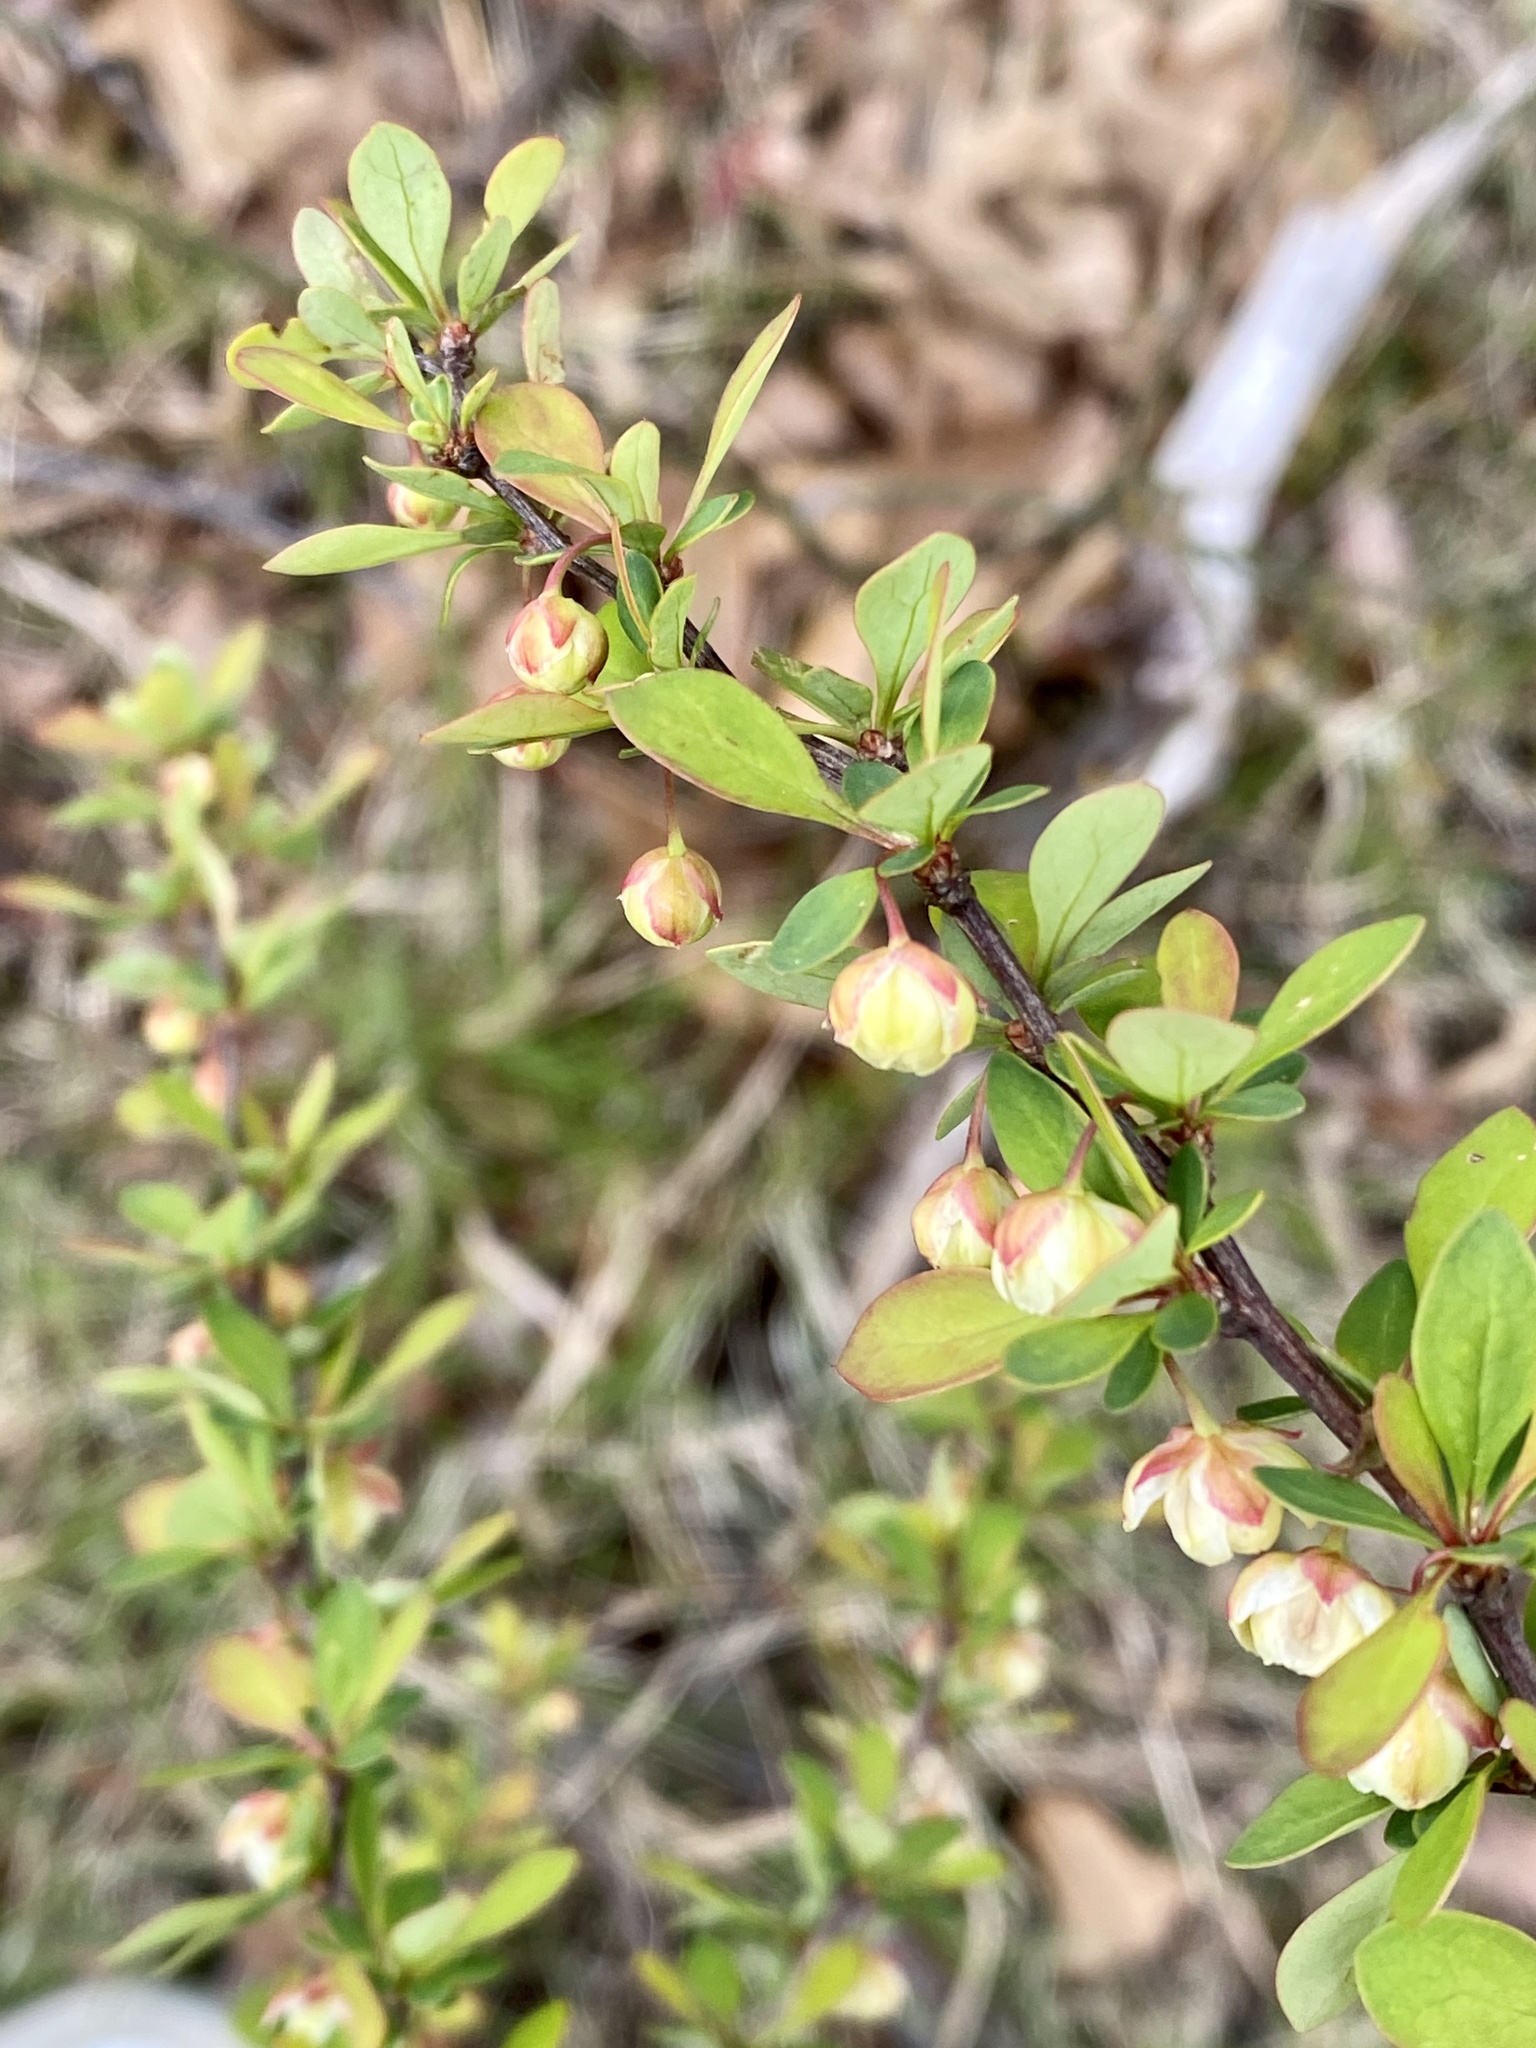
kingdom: Plantae
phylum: Tracheophyta
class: Magnoliopsida
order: Ranunculales
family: Berberidaceae
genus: Berberis
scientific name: Berberis thunbergii
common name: Japanese barberry
